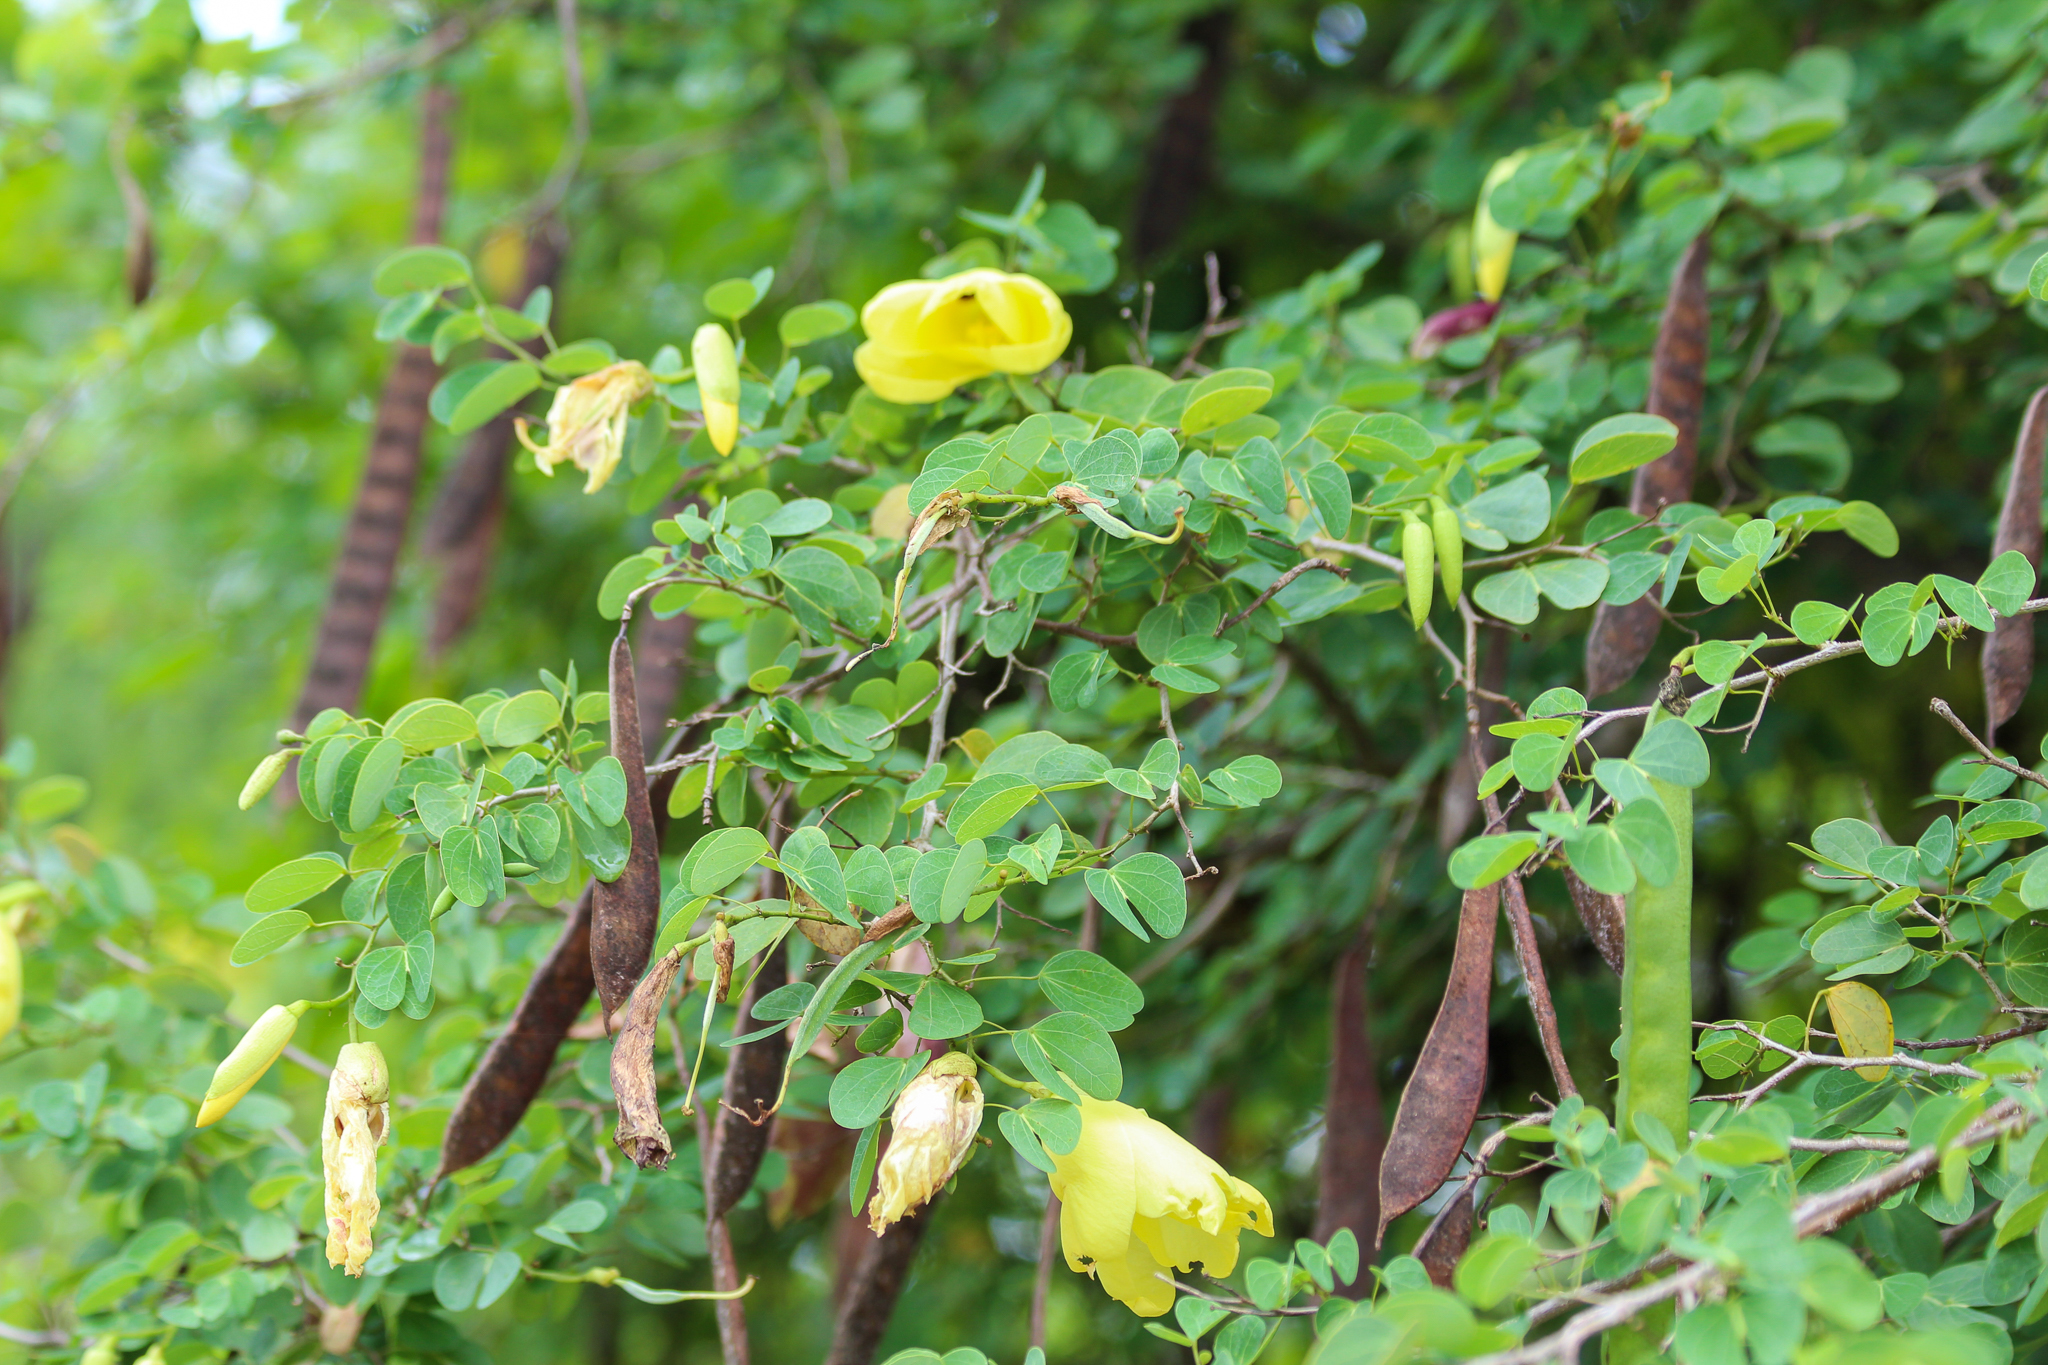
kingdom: Plantae
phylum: Tracheophyta
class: Magnoliopsida
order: Fabales
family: Fabaceae
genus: Bauhinia
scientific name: Bauhinia tomentosa
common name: Bell bauhinia
